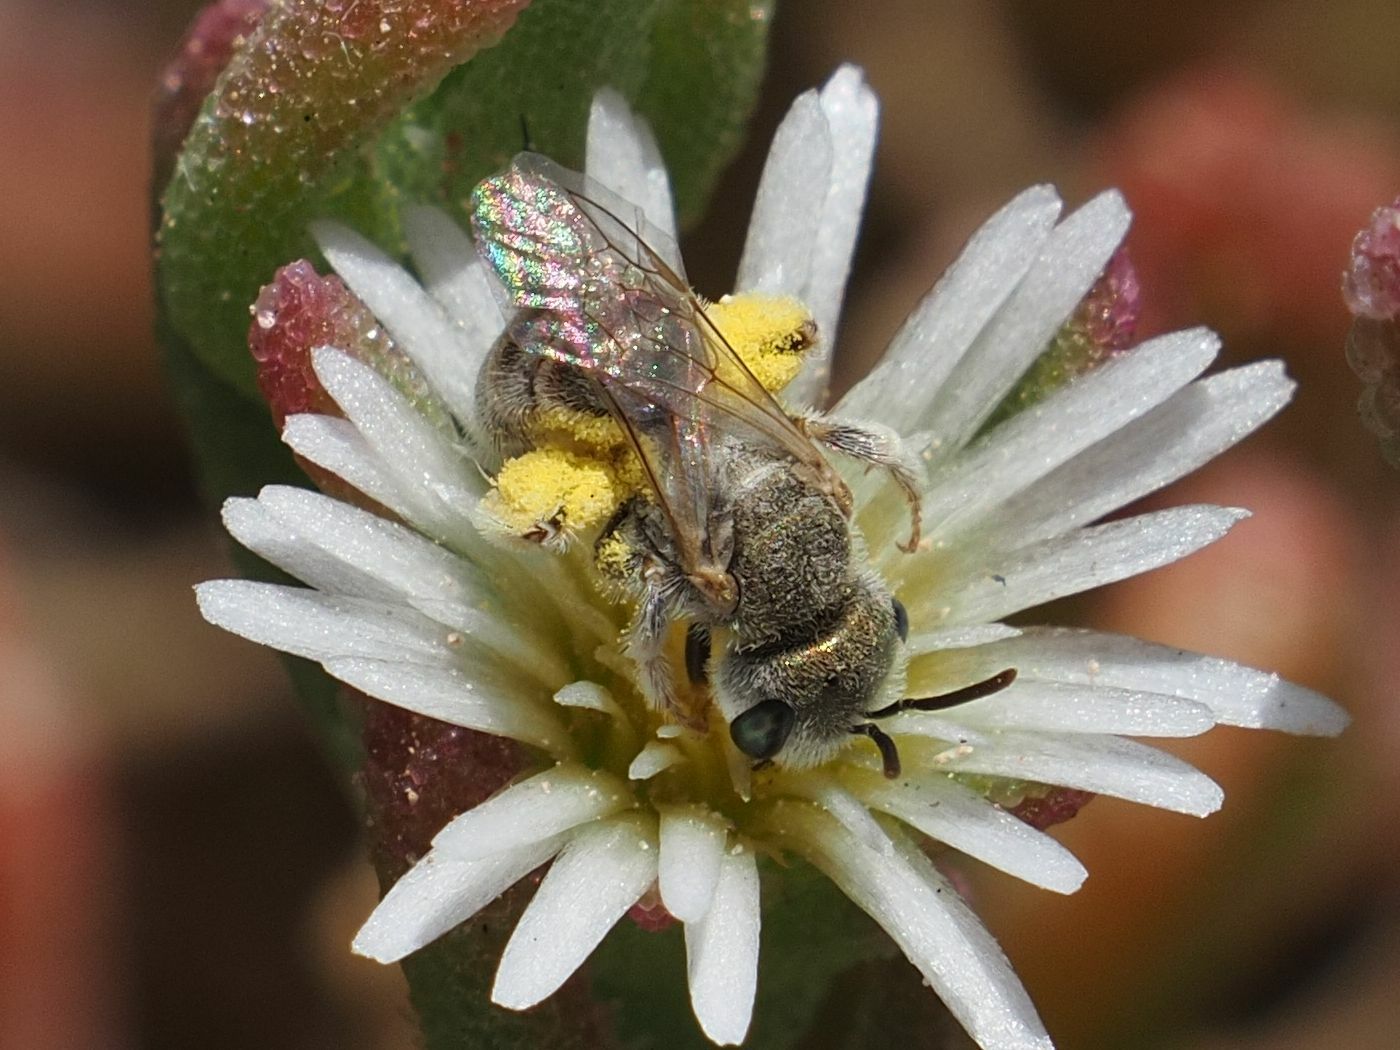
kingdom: Animalia
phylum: Arthropoda
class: Insecta
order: Hymenoptera
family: Halictidae
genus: Halictus
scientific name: Halictus concinnus
